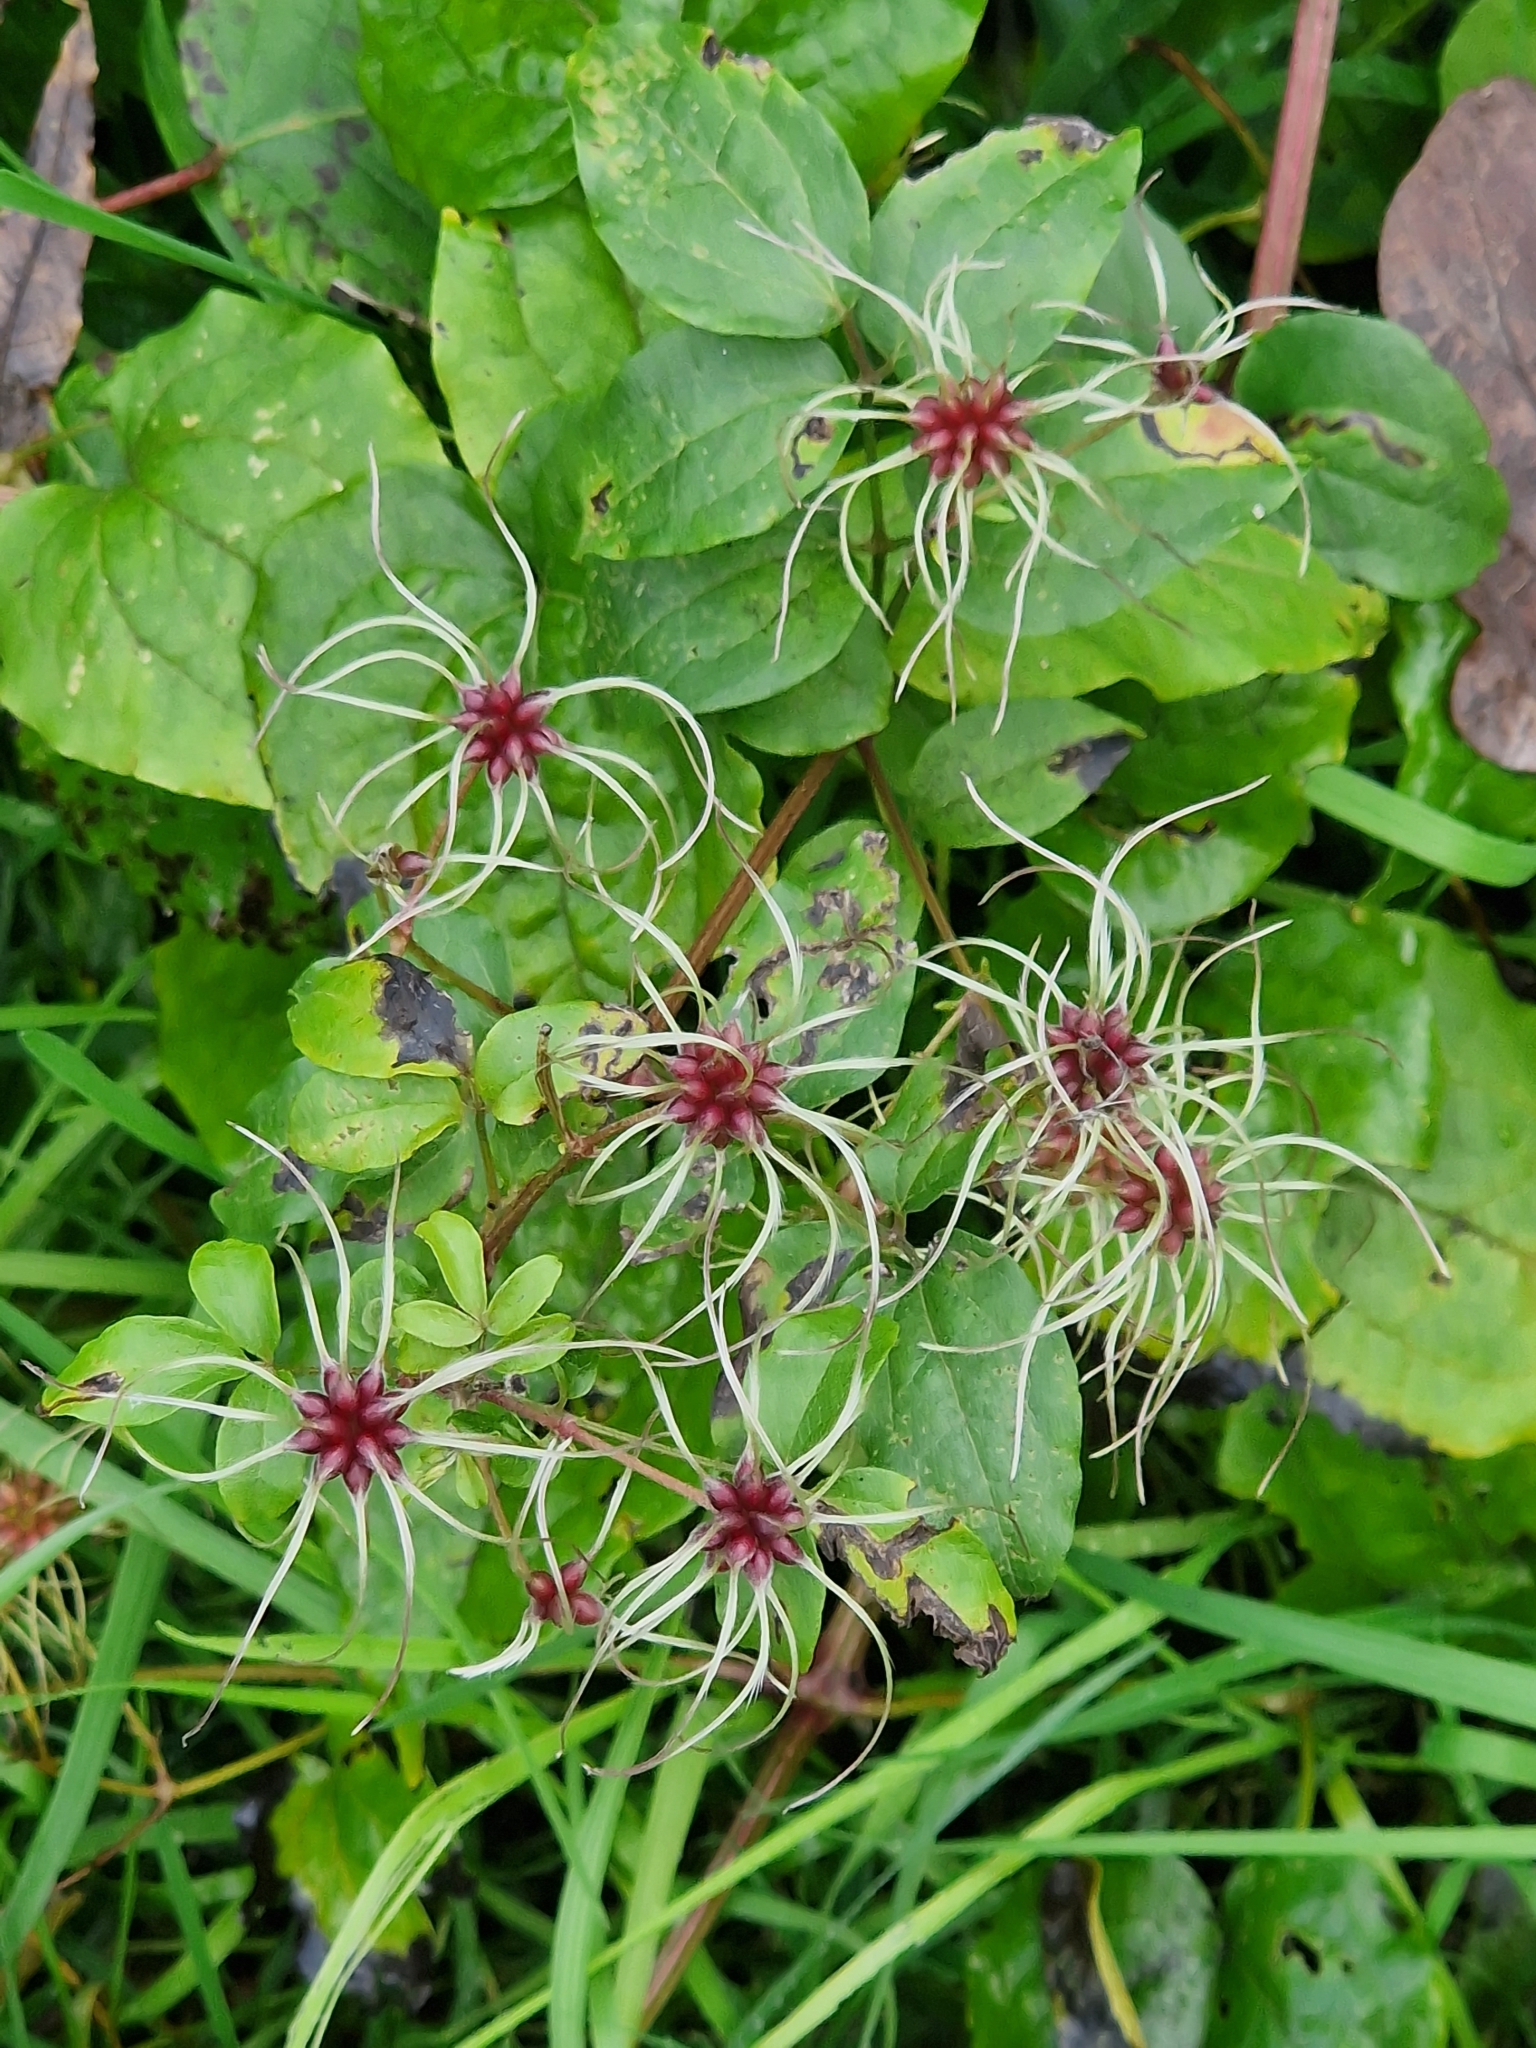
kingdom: Plantae
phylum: Tracheophyta
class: Magnoliopsida
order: Ranunculales
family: Ranunculaceae
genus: Clematis
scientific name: Clematis vitalba
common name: Evergreen clematis
